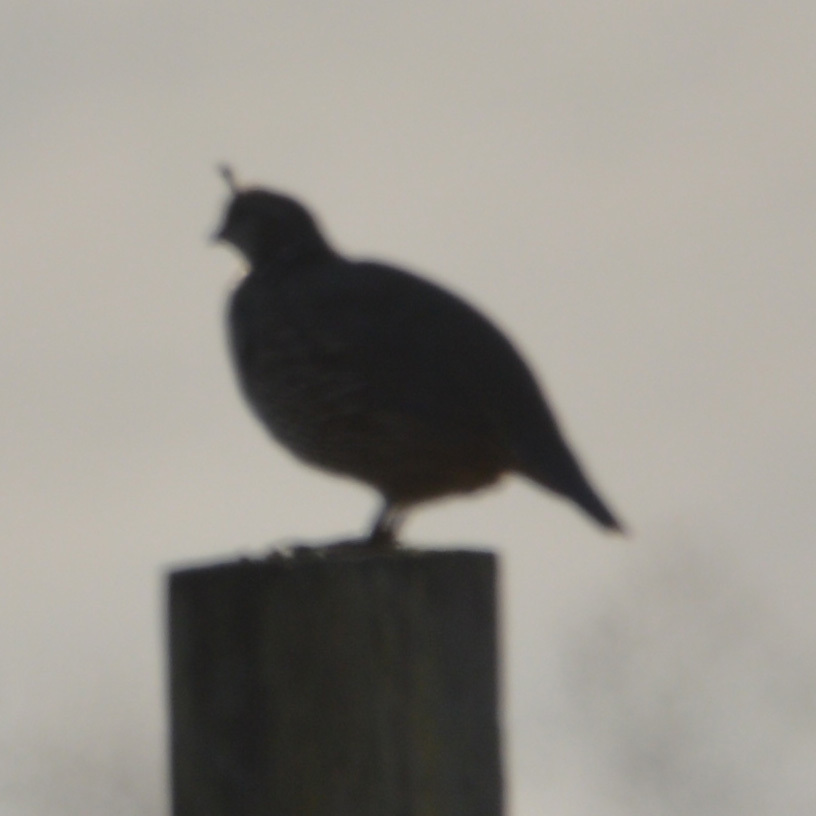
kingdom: Animalia
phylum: Chordata
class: Aves
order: Galliformes
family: Odontophoridae
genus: Callipepla
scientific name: Callipepla californica
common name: California quail
